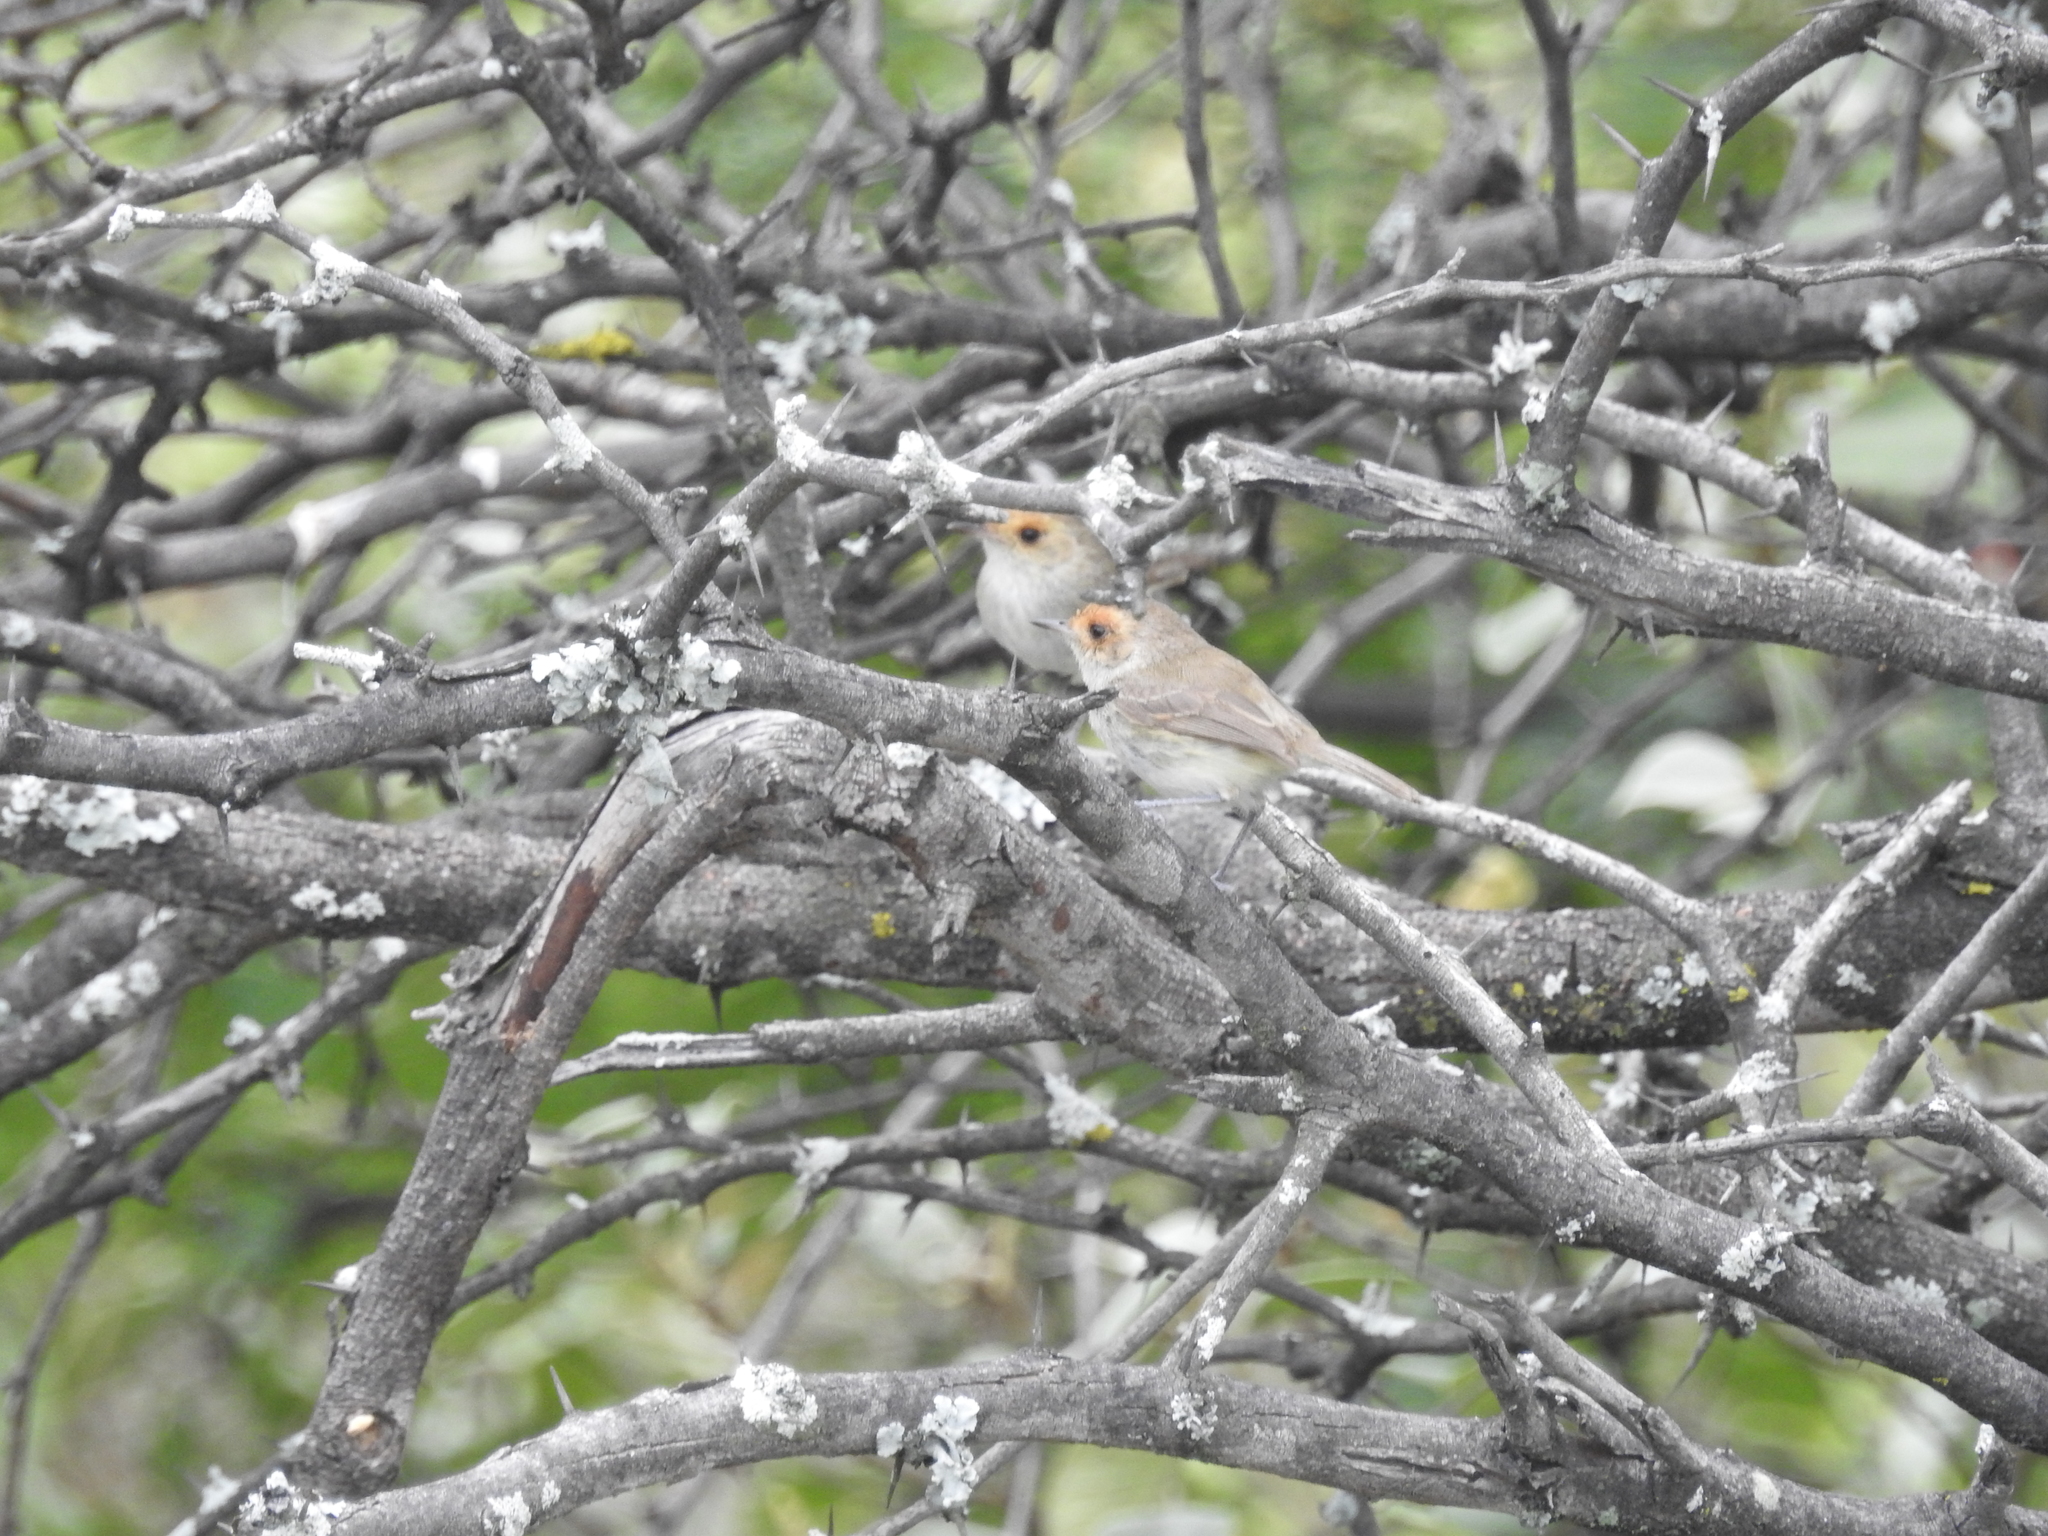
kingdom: Animalia
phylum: Chordata
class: Aves
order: Passeriformes
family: Tyrannidae
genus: Euscarthmus
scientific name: Euscarthmus fulviceps
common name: Fulvous-faced scrub tyrant
